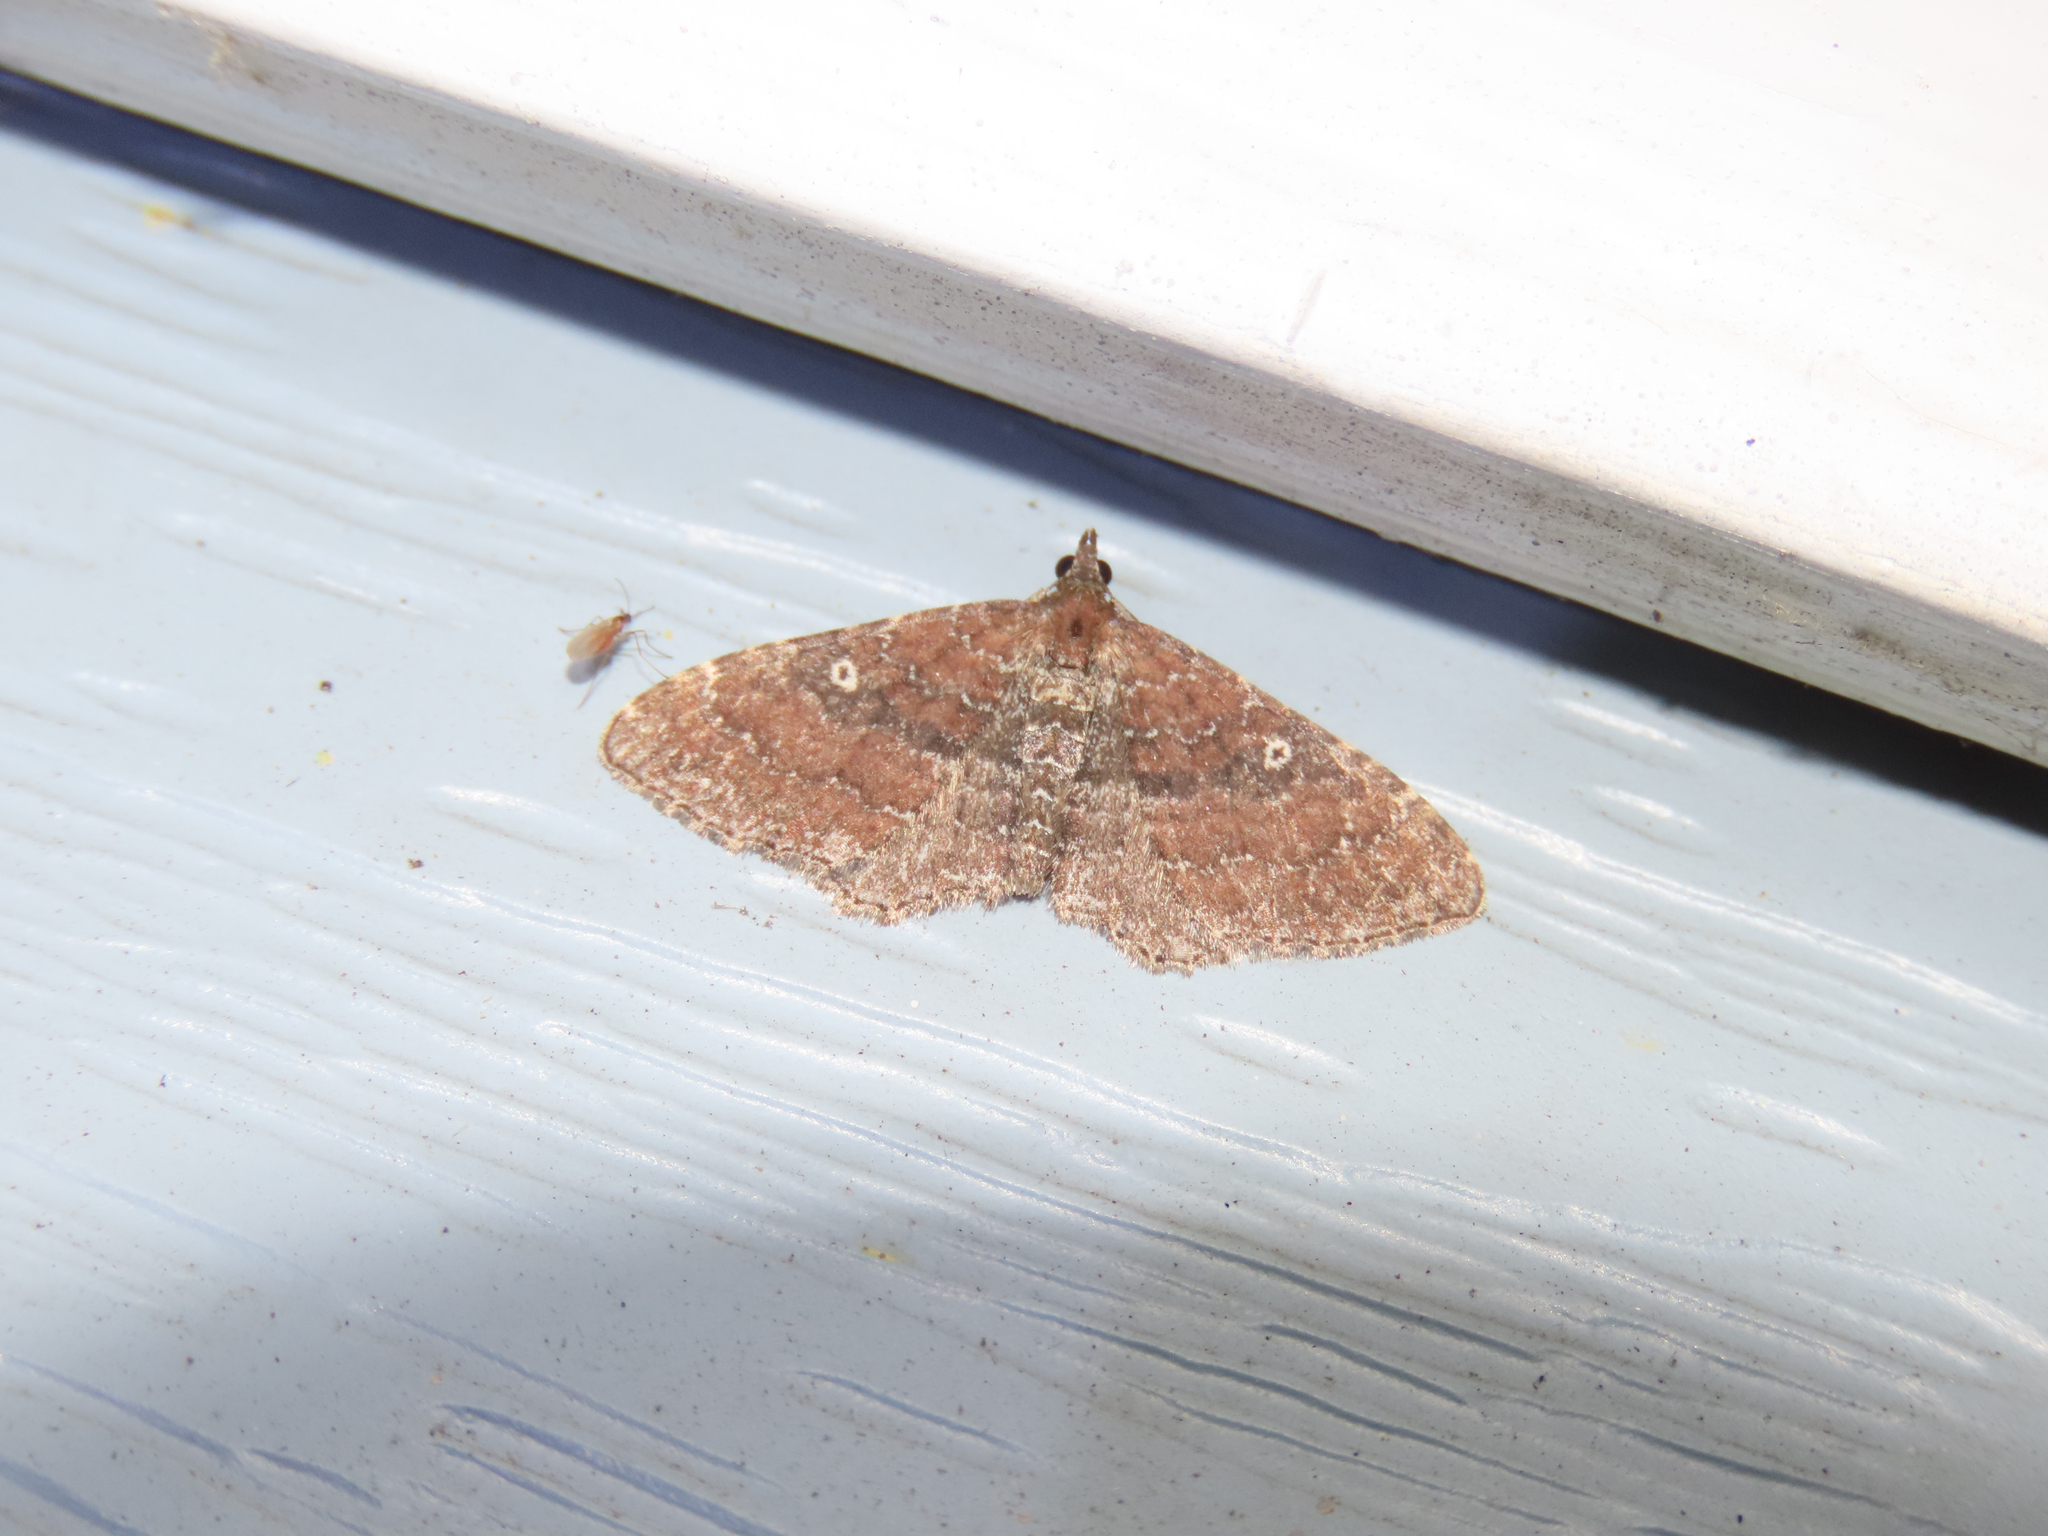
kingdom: Animalia
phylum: Arthropoda
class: Insecta
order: Lepidoptera
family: Geometridae
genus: Orthonama
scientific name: Orthonama obstipata
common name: The gem
